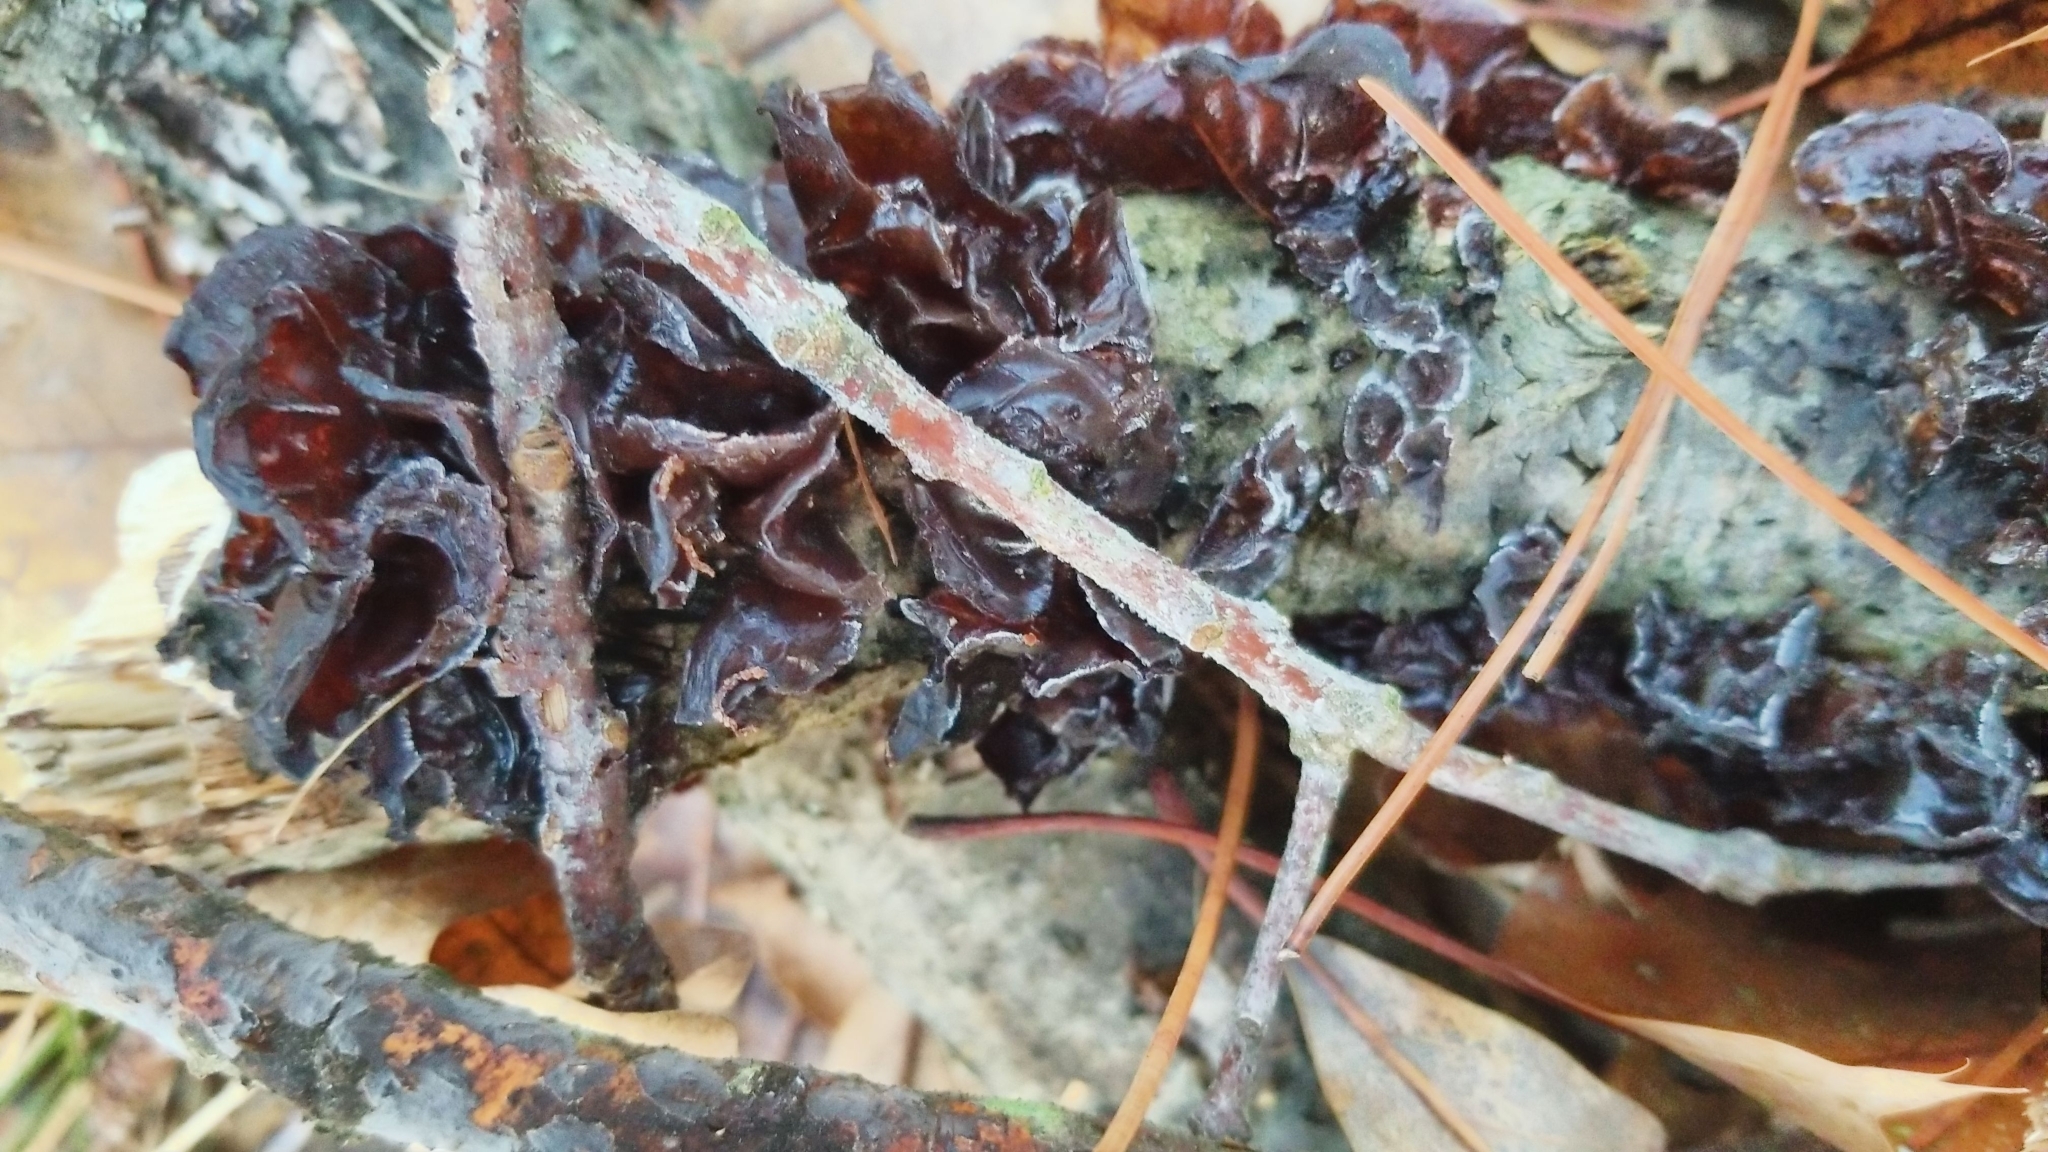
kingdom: Fungi
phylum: Basidiomycota
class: Agaricomycetes
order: Auriculariales
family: Auriculariaceae
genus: Exidia
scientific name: Exidia
